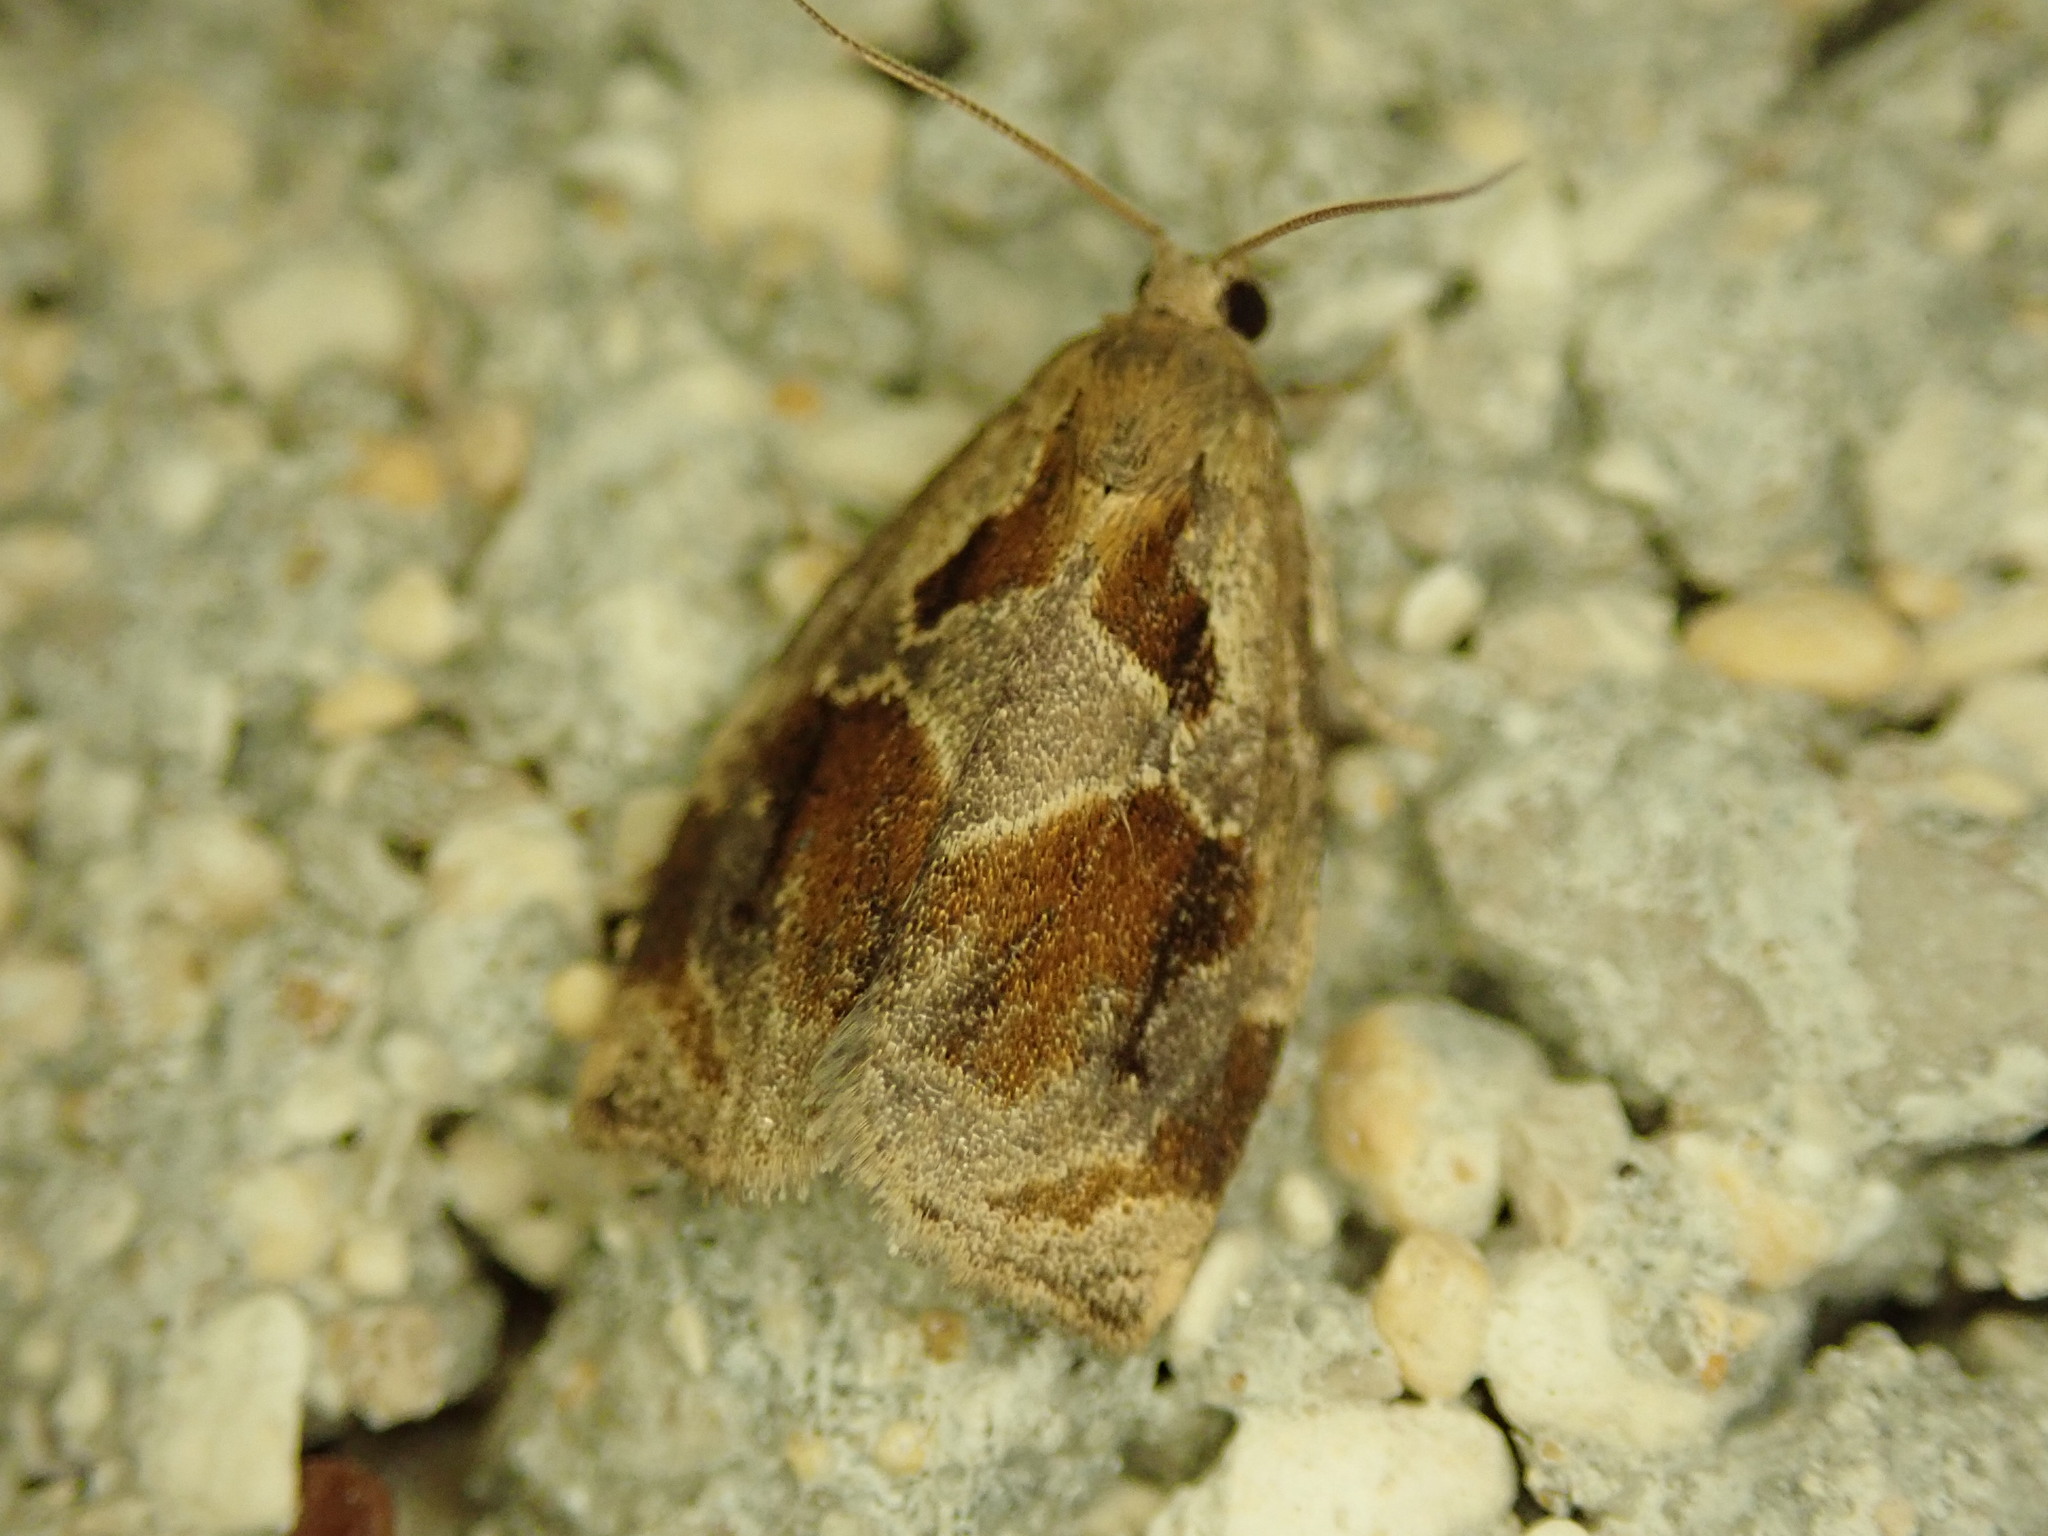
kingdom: Animalia
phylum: Arthropoda
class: Insecta
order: Lepidoptera
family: Tortricidae
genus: Archips
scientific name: Archips crataegana
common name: Brown oak tortrix
